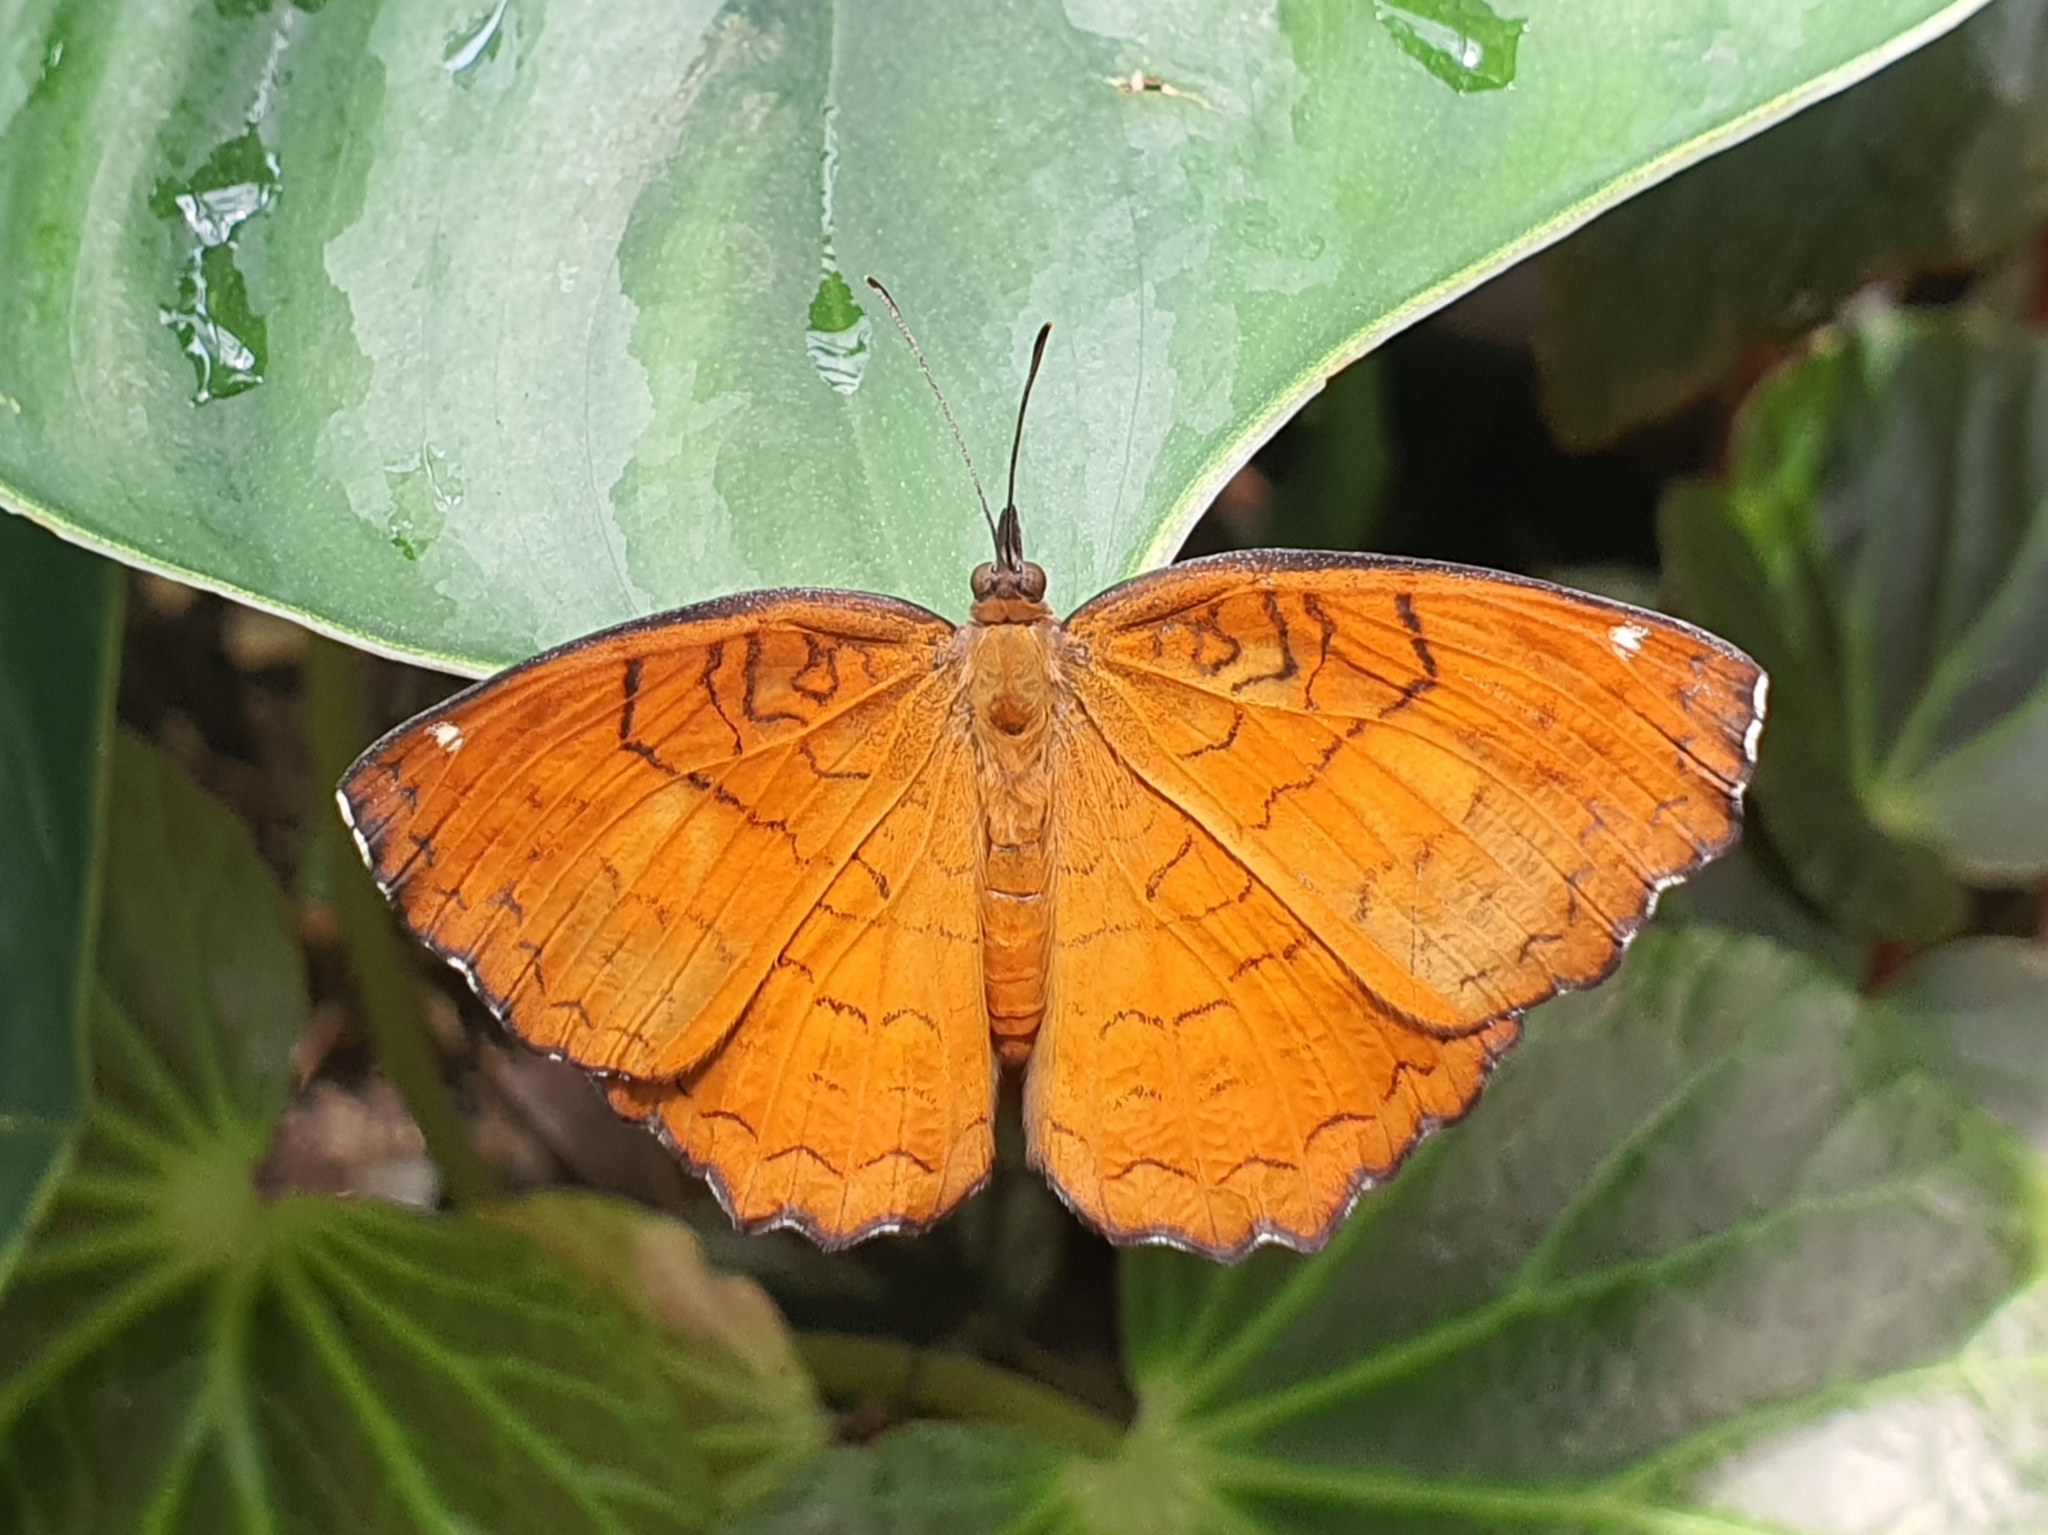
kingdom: Animalia
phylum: Arthropoda
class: Insecta
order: Lepidoptera
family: Nymphalidae
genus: Ariadne
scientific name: Ariadne ariadne
